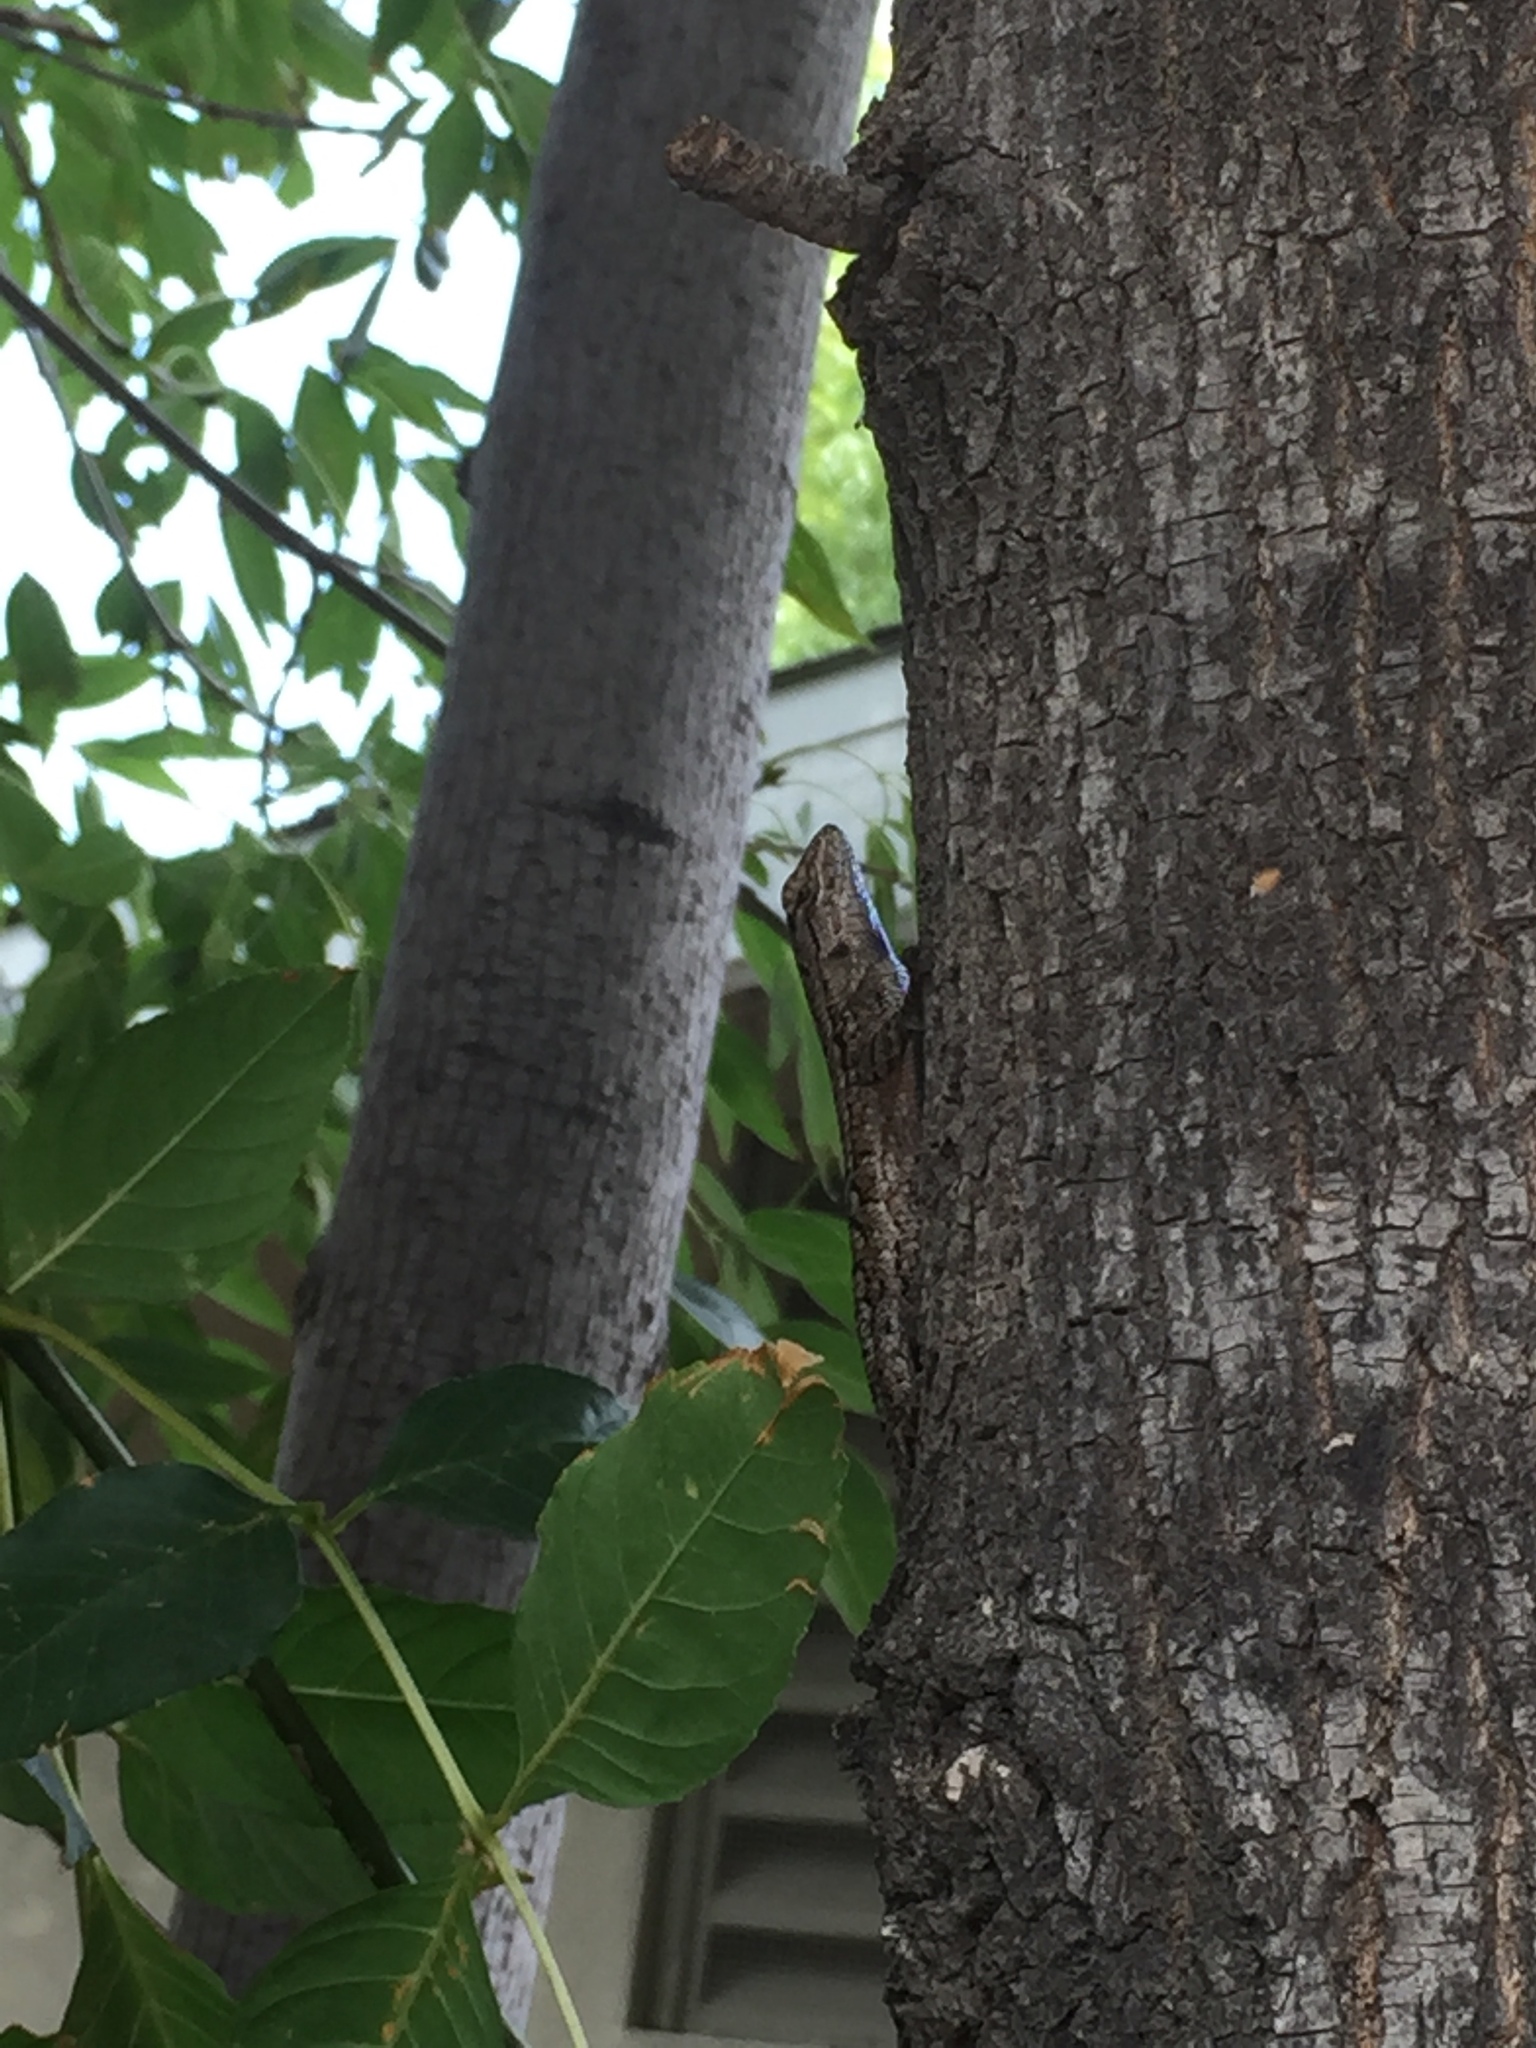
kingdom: Animalia
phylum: Chordata
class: Squamata
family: Phrynosomatidae
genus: Sceloporus
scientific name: Sceloporus occidentalis
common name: Western fence lizard
